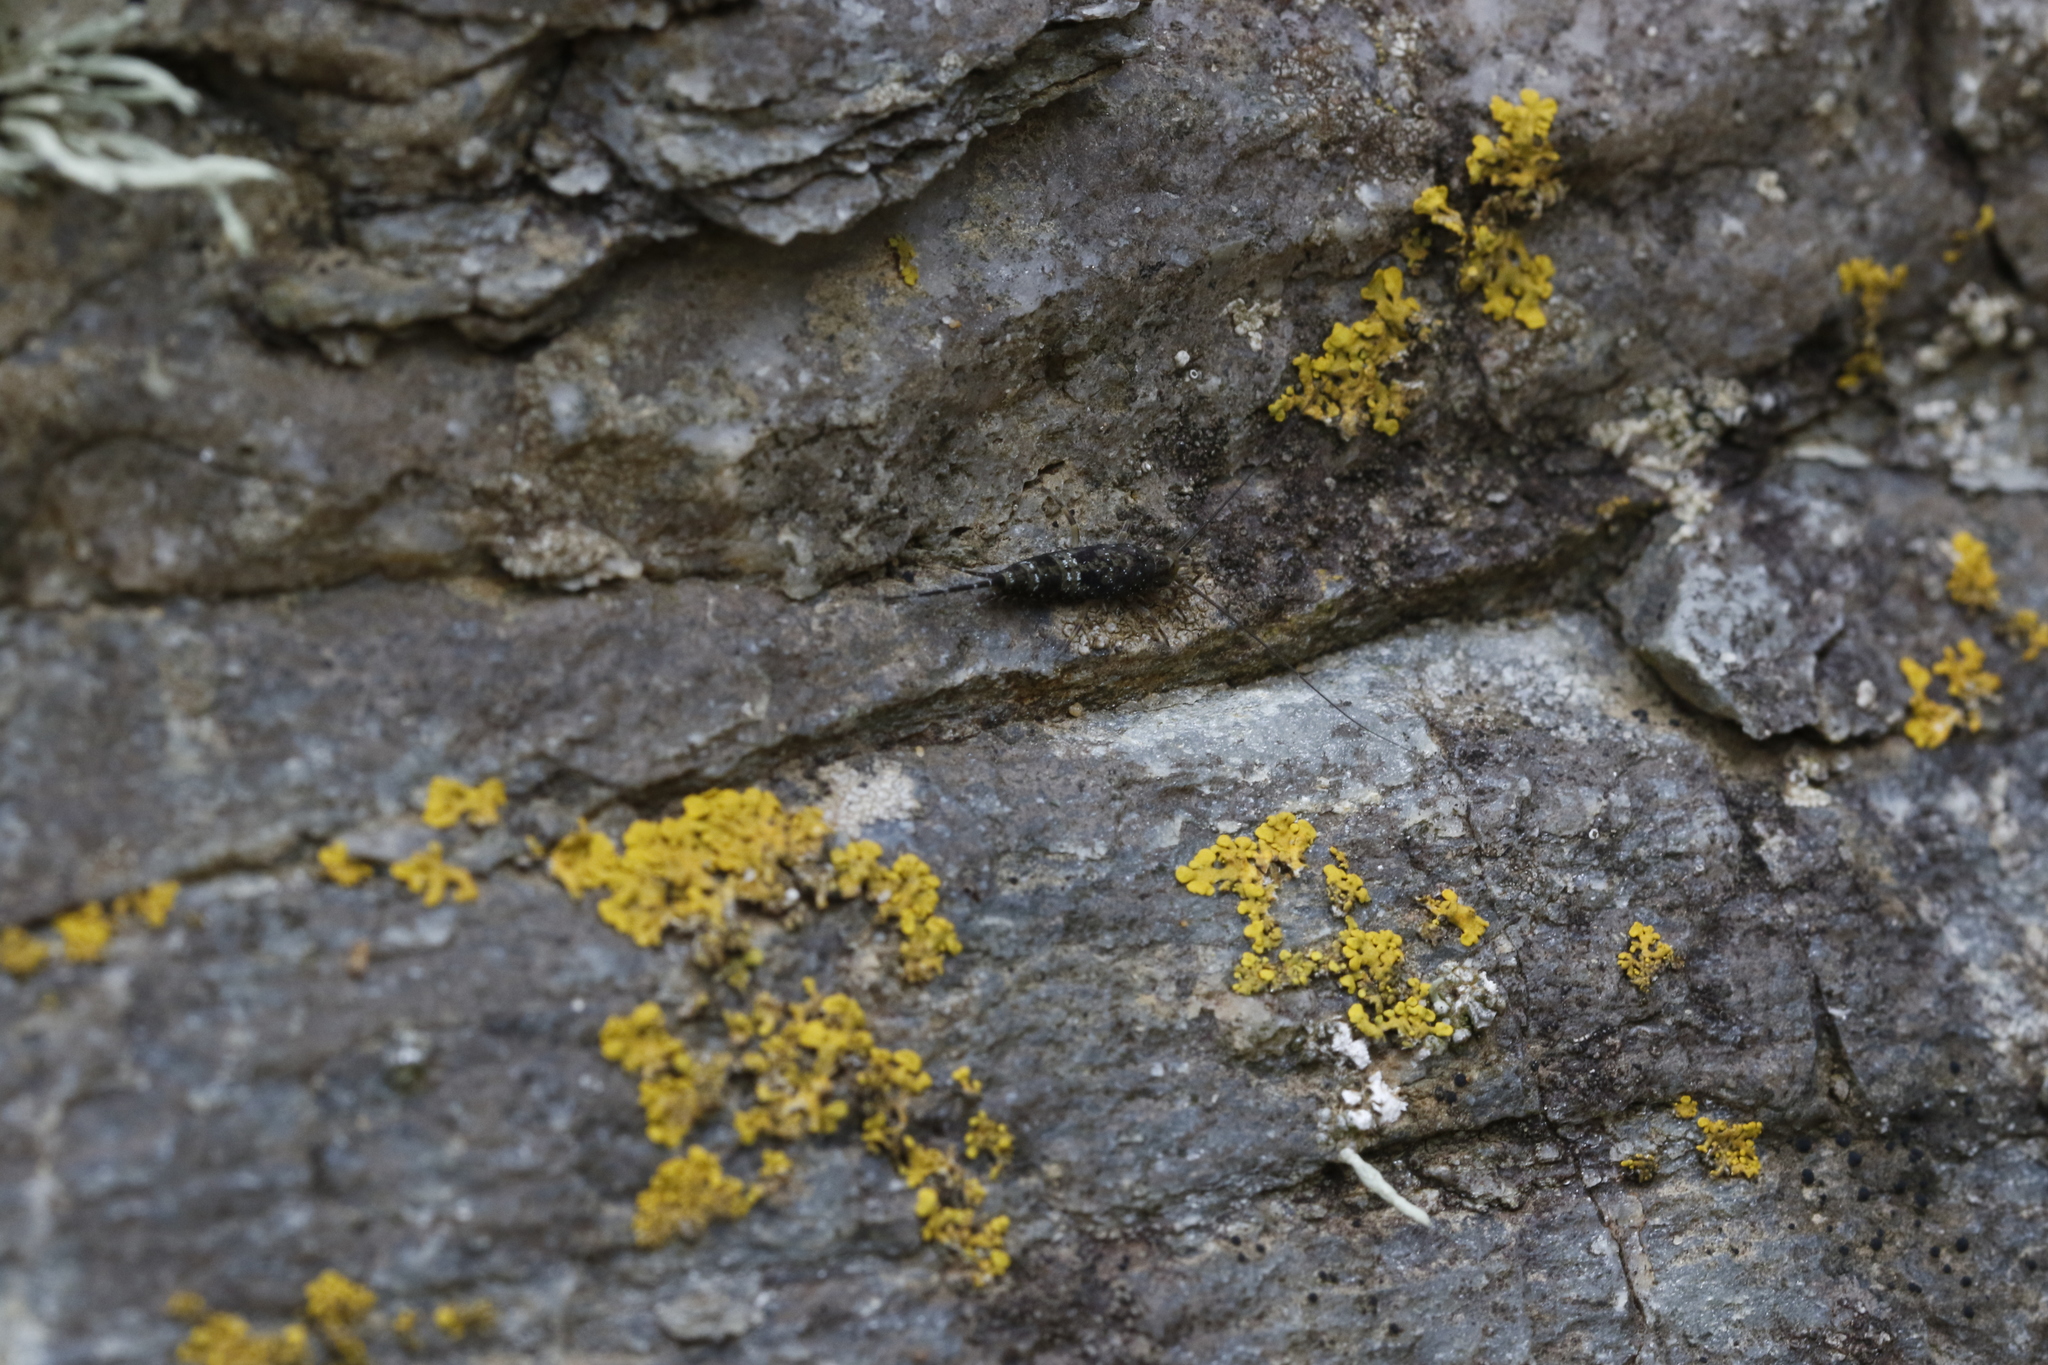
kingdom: Animalia
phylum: Arthropoda
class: Insecta
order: Archaeognatha
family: Machilidae
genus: Petrobius
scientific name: Petrobius maritimus
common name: Sea bristletail
